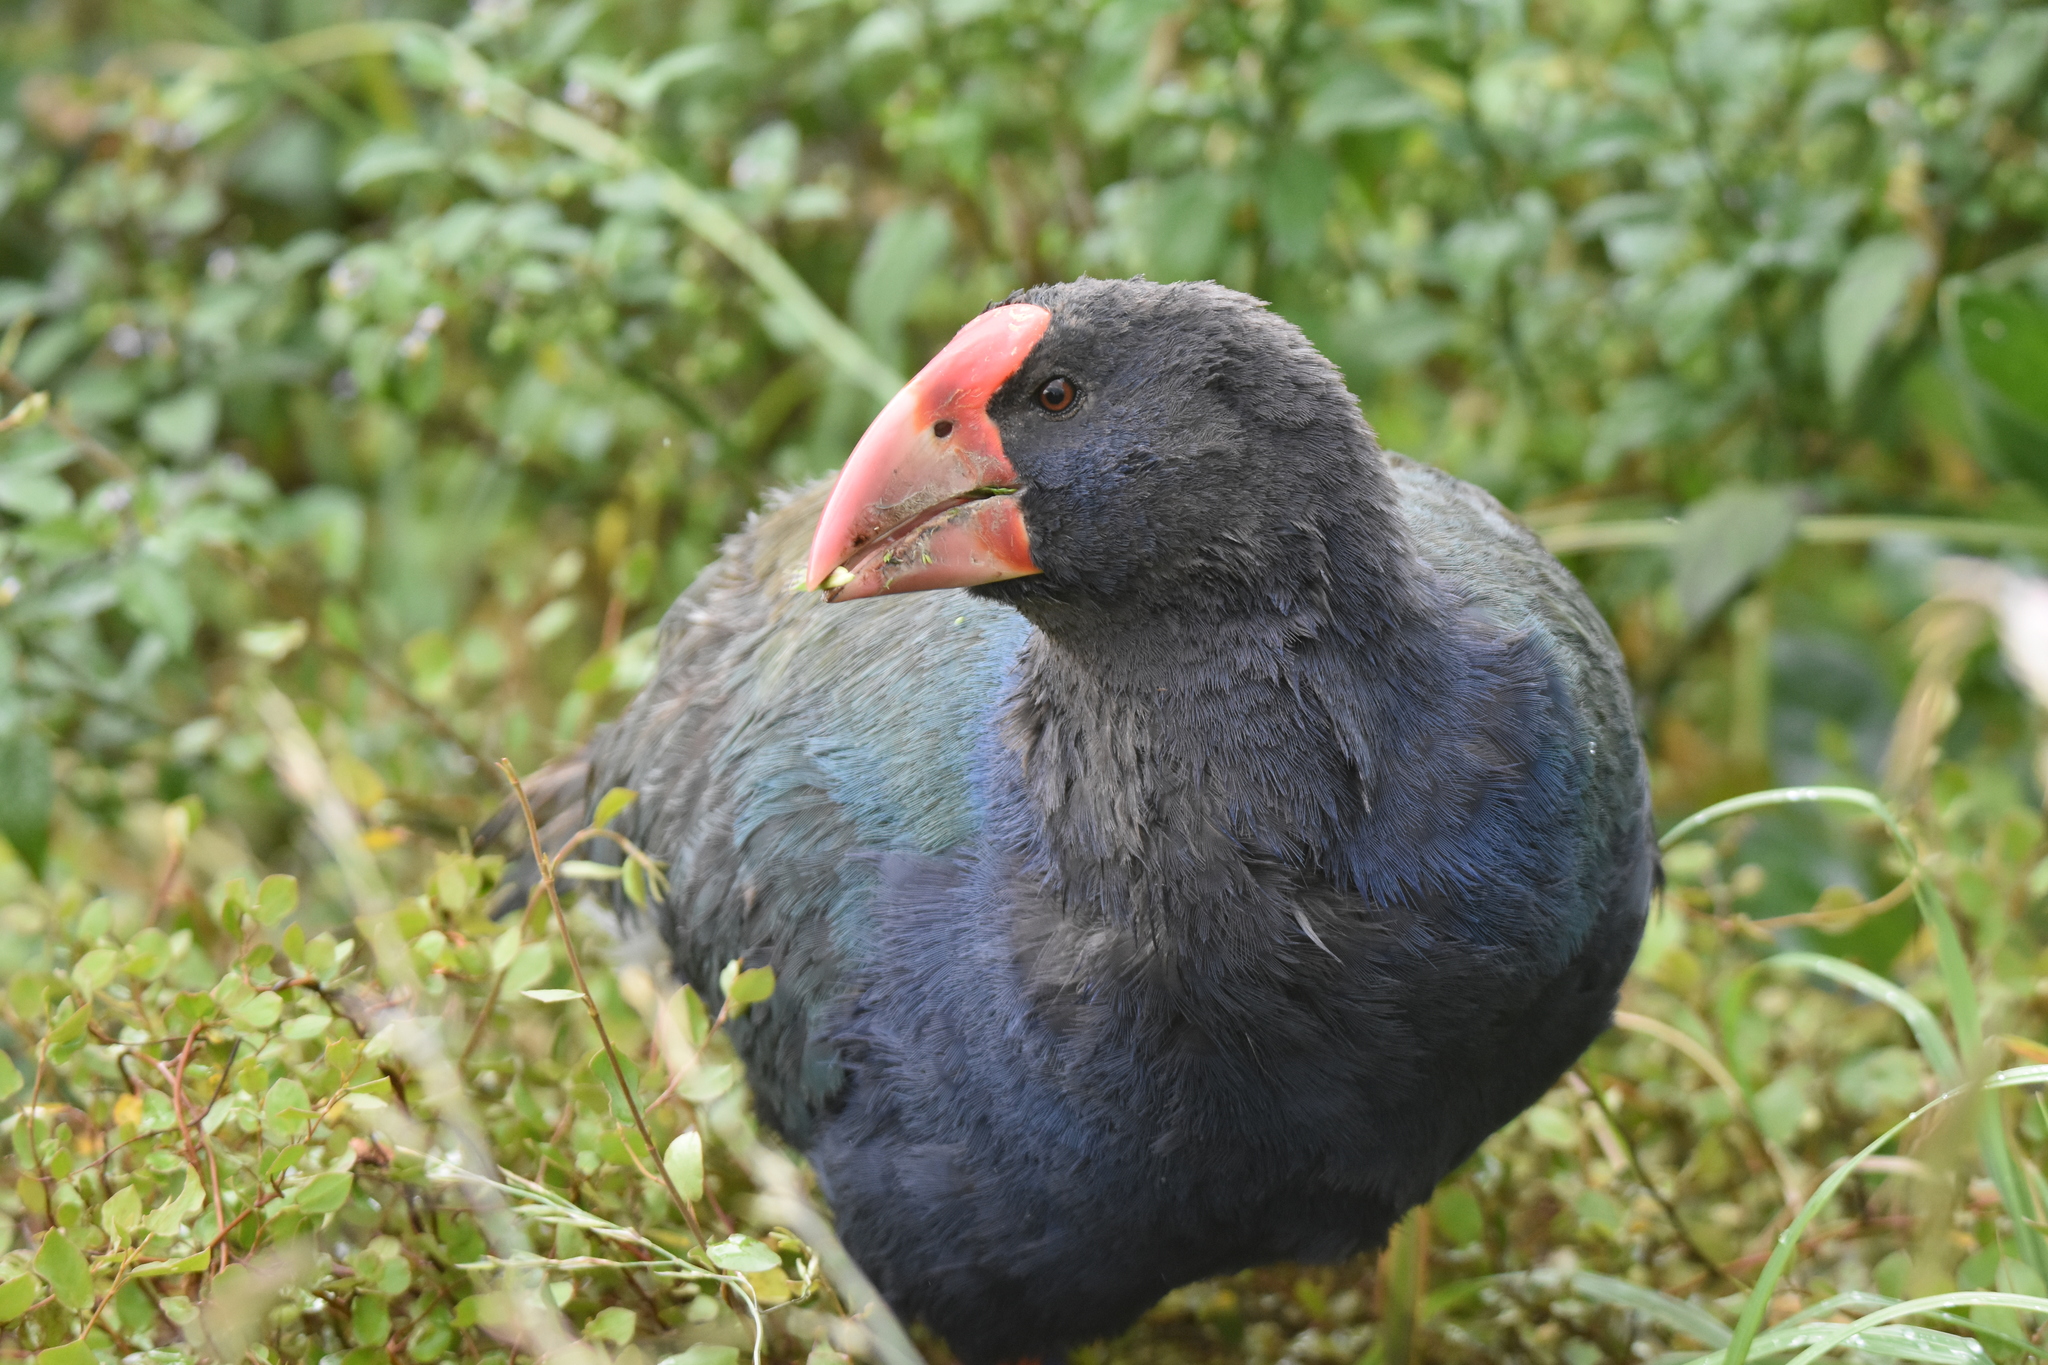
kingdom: Animalia
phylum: Chordata
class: Aves
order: Gruiformes
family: Rallidae
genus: Porphyrio
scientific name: Porphyrio hochstetteri
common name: South island takahe
